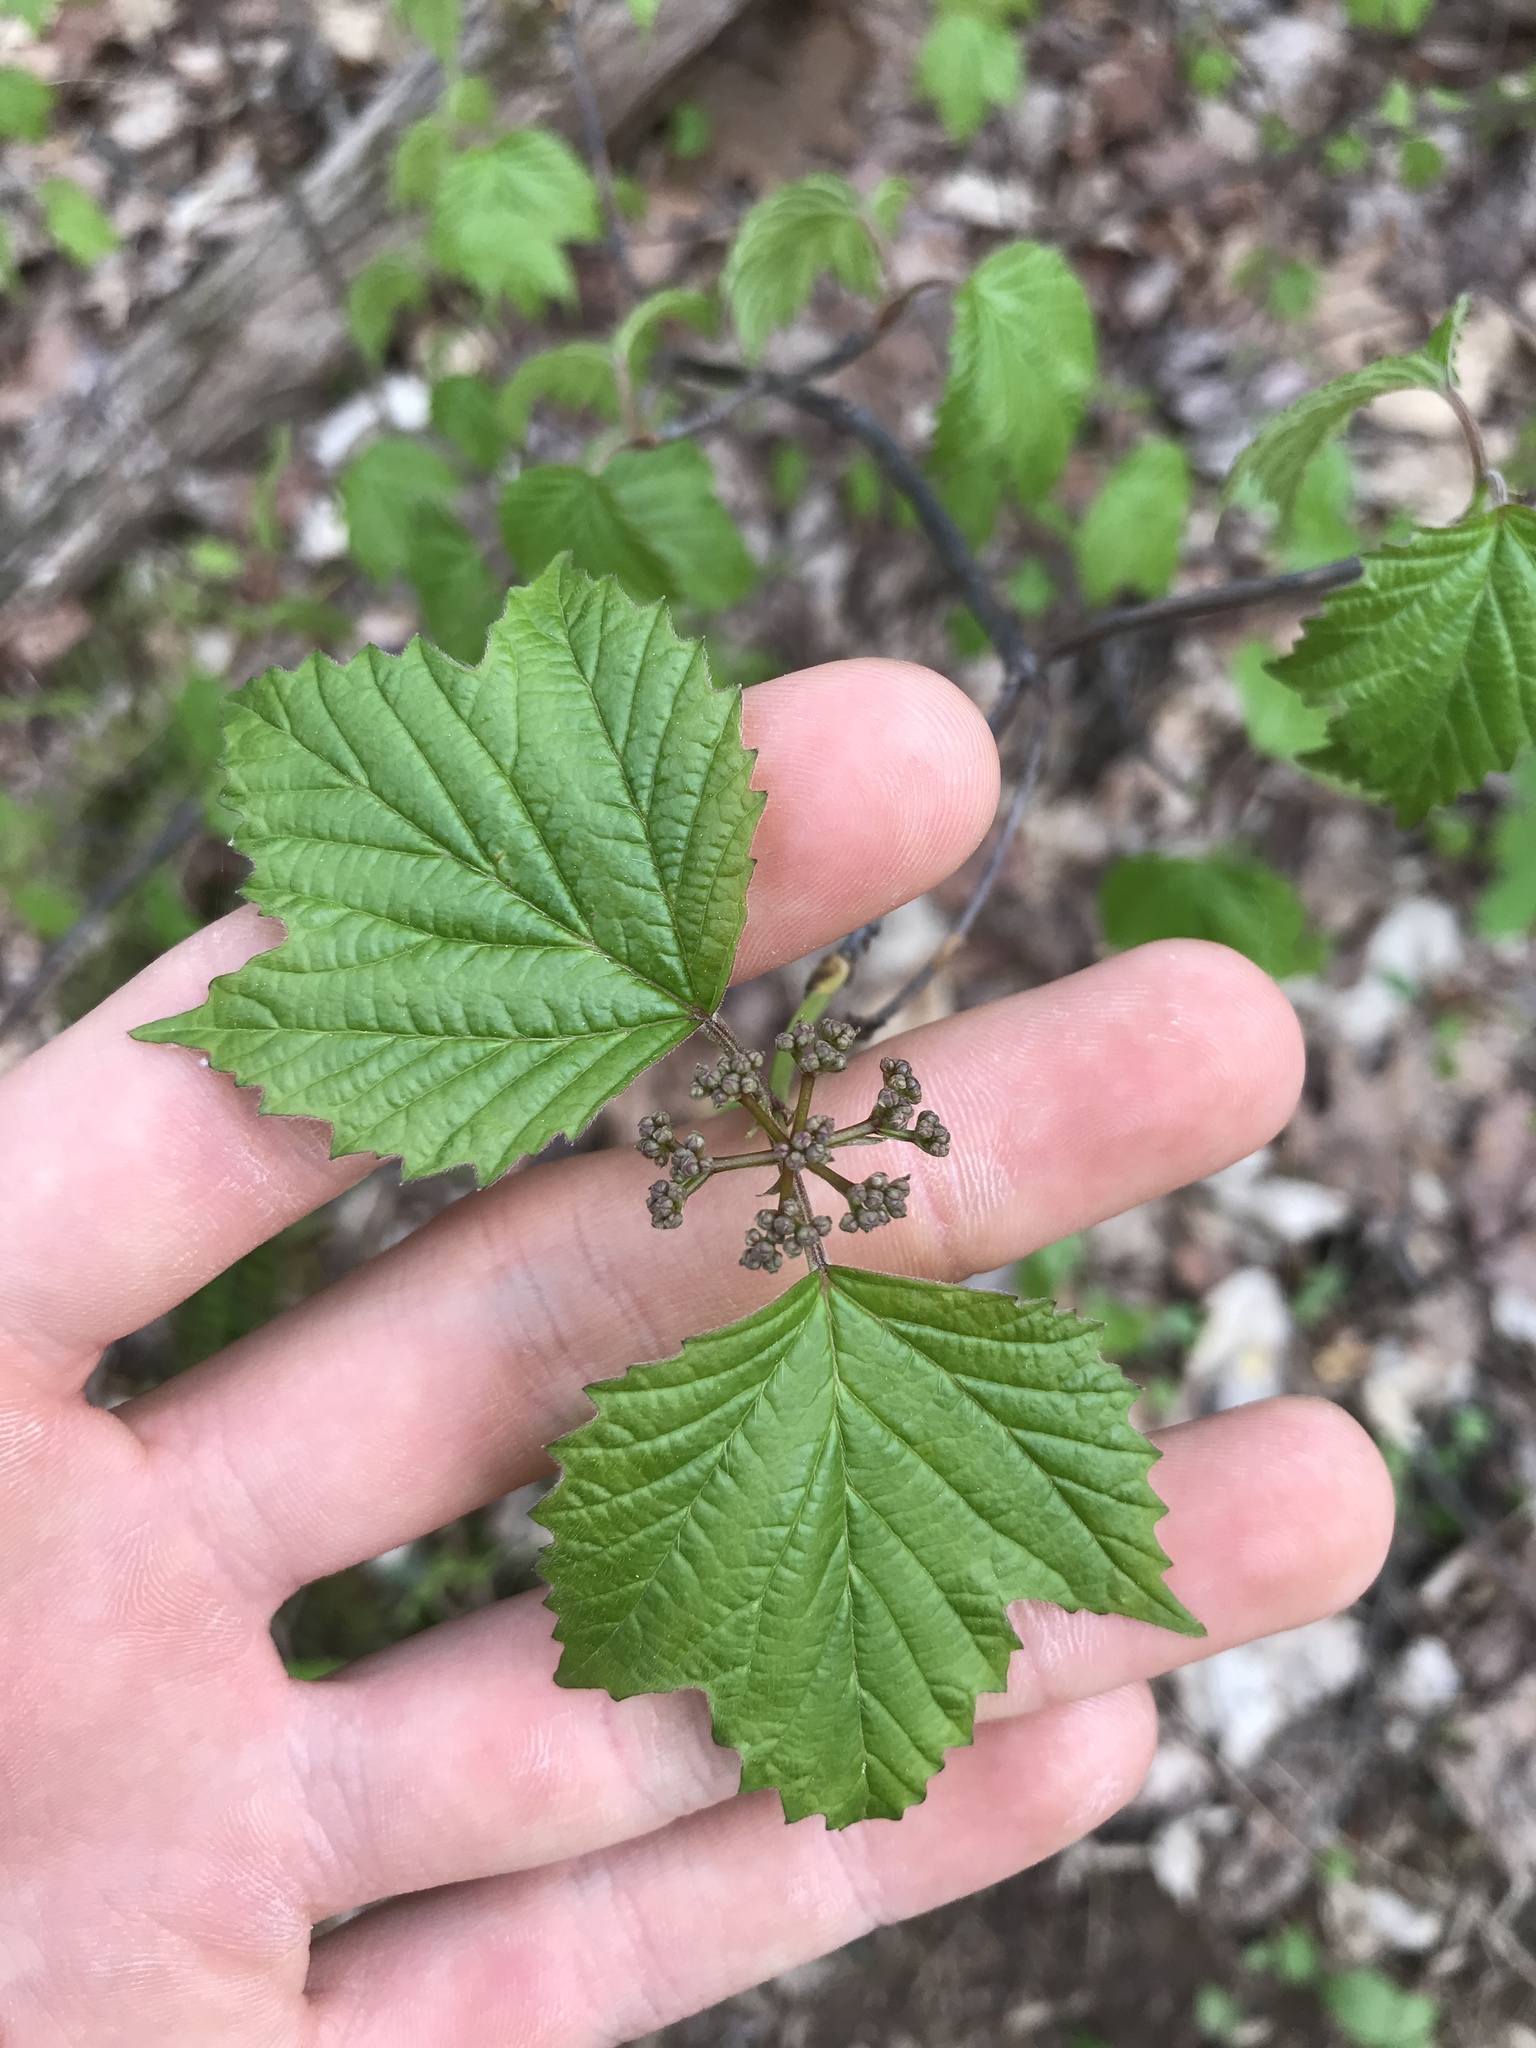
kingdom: Plantae
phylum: Tracheophyta
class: Magnoliopsida
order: Dipsacales
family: Viburnaceae
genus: Viburnum
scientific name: Viburnum acerifolium
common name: Dockmackie
